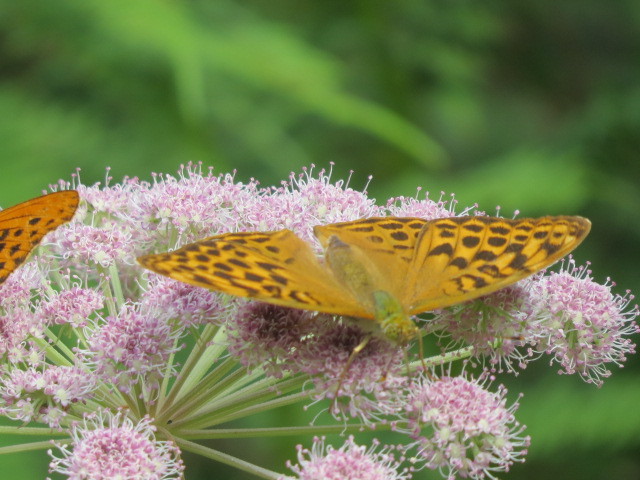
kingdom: Animalia
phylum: Arthropoda
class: Insecta
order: Lepidoptera
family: Nymphalidae
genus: Argynnis
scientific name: Argynnis paphia
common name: Silver-washed fritillary
